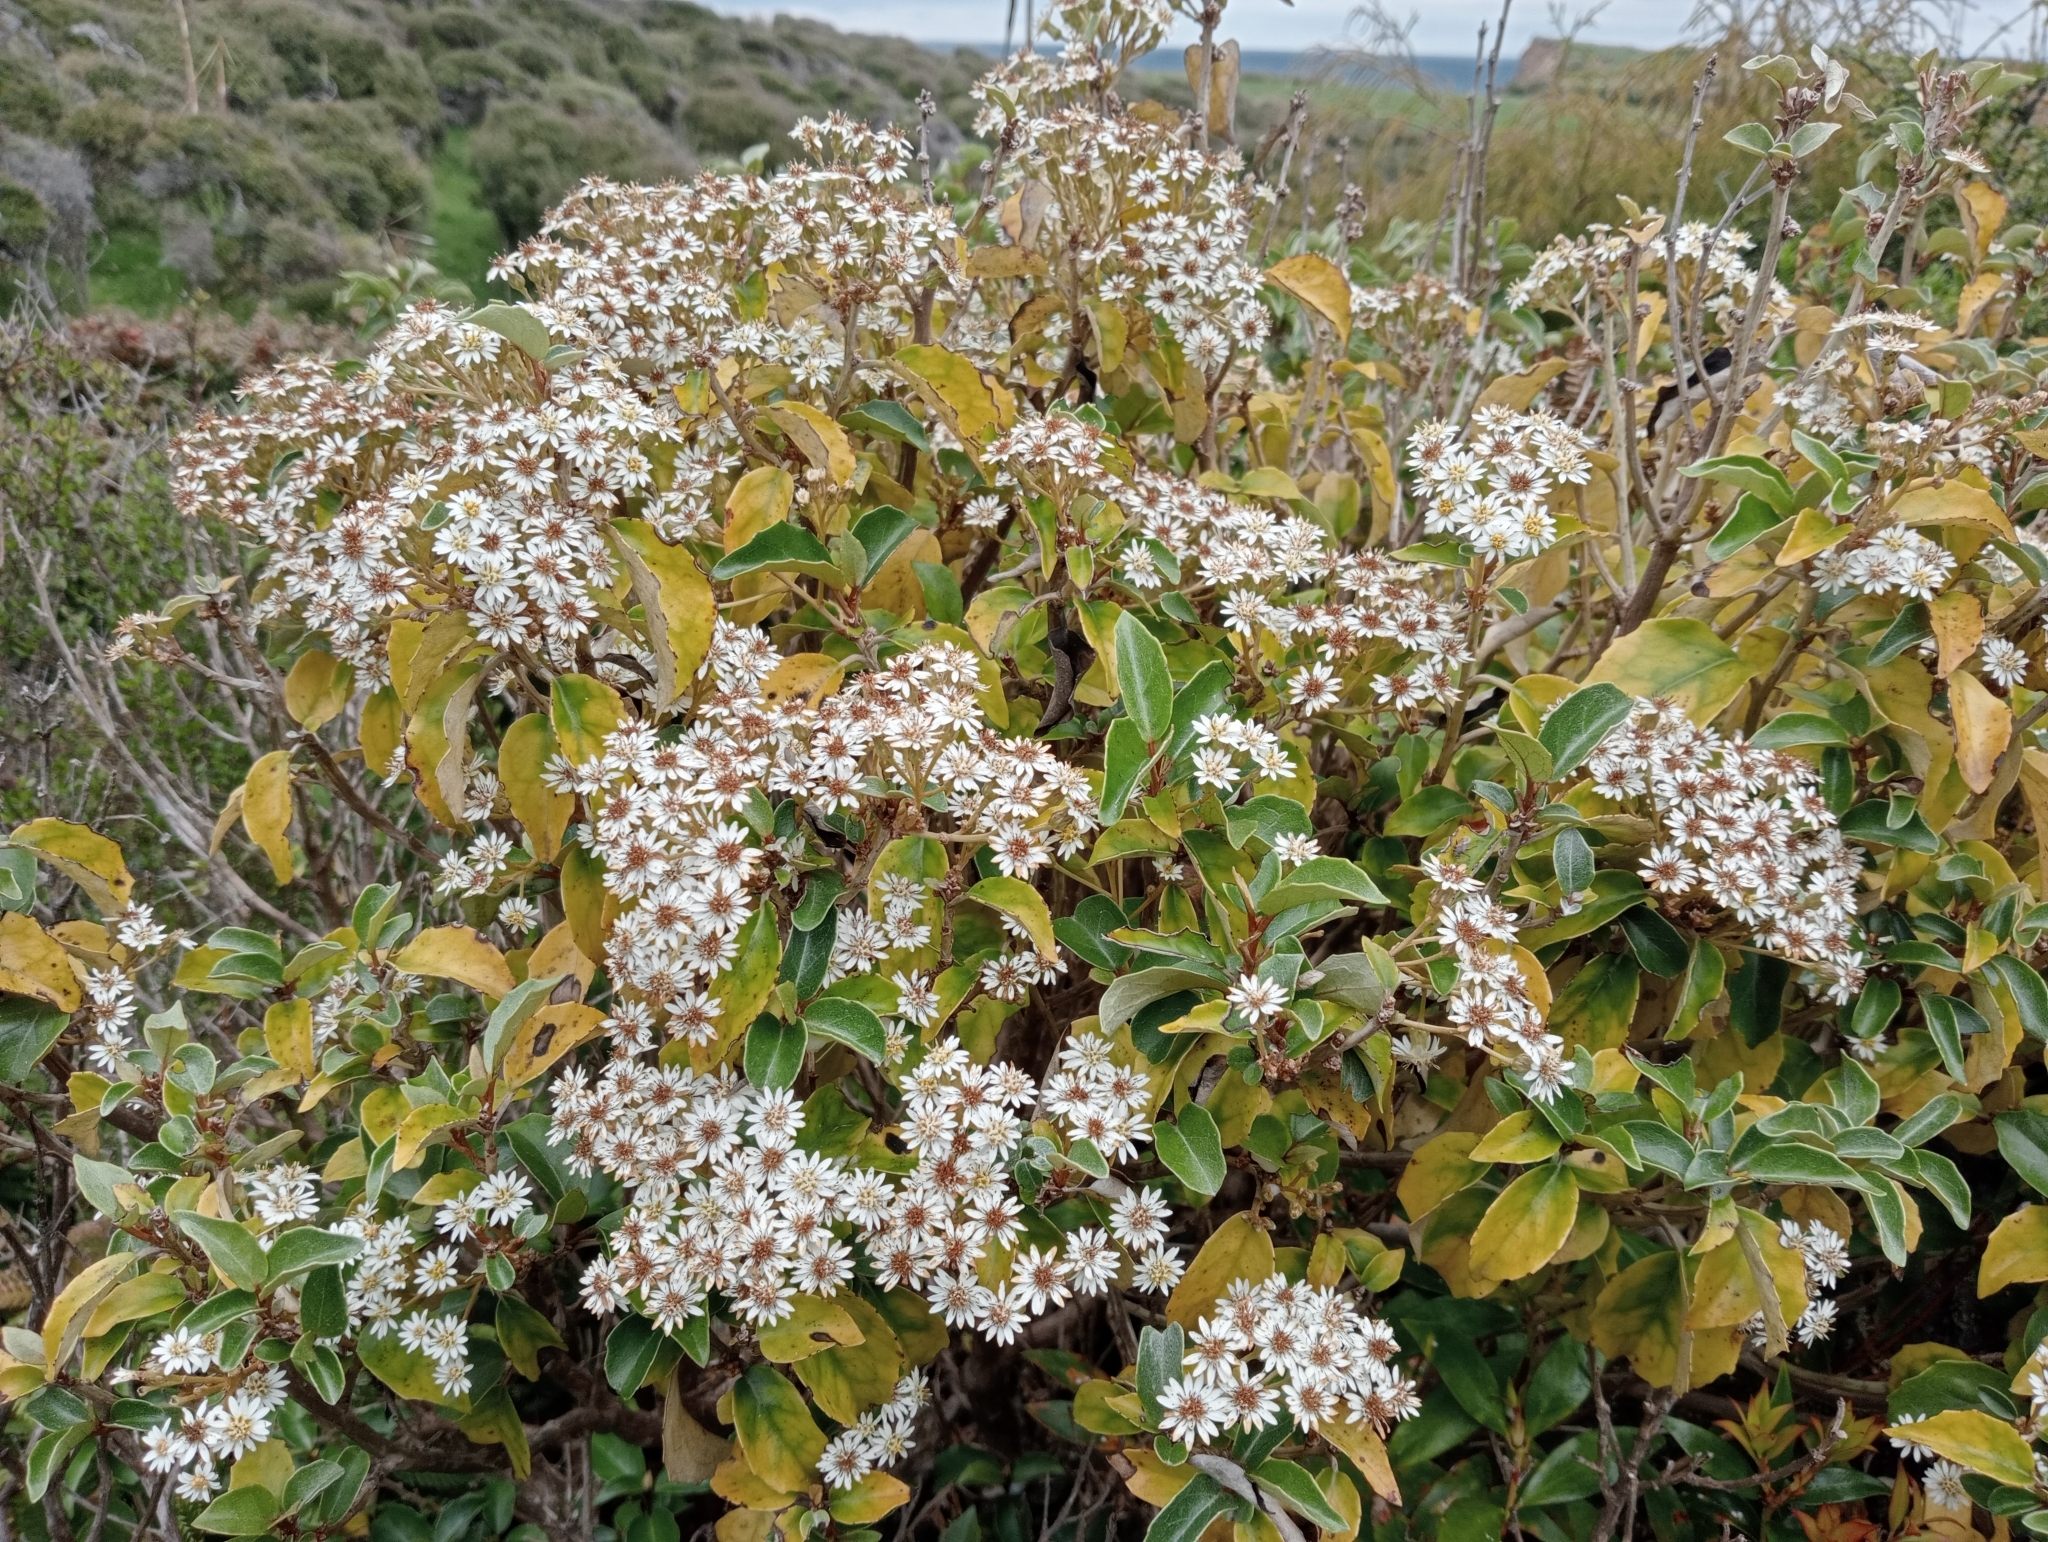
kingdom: Plantae
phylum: Tracheophyta
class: Magnoliopsida
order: Asterales
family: Asteraceae
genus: Olearia
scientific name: Olearia arborescens
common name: Glossy tree daisy
